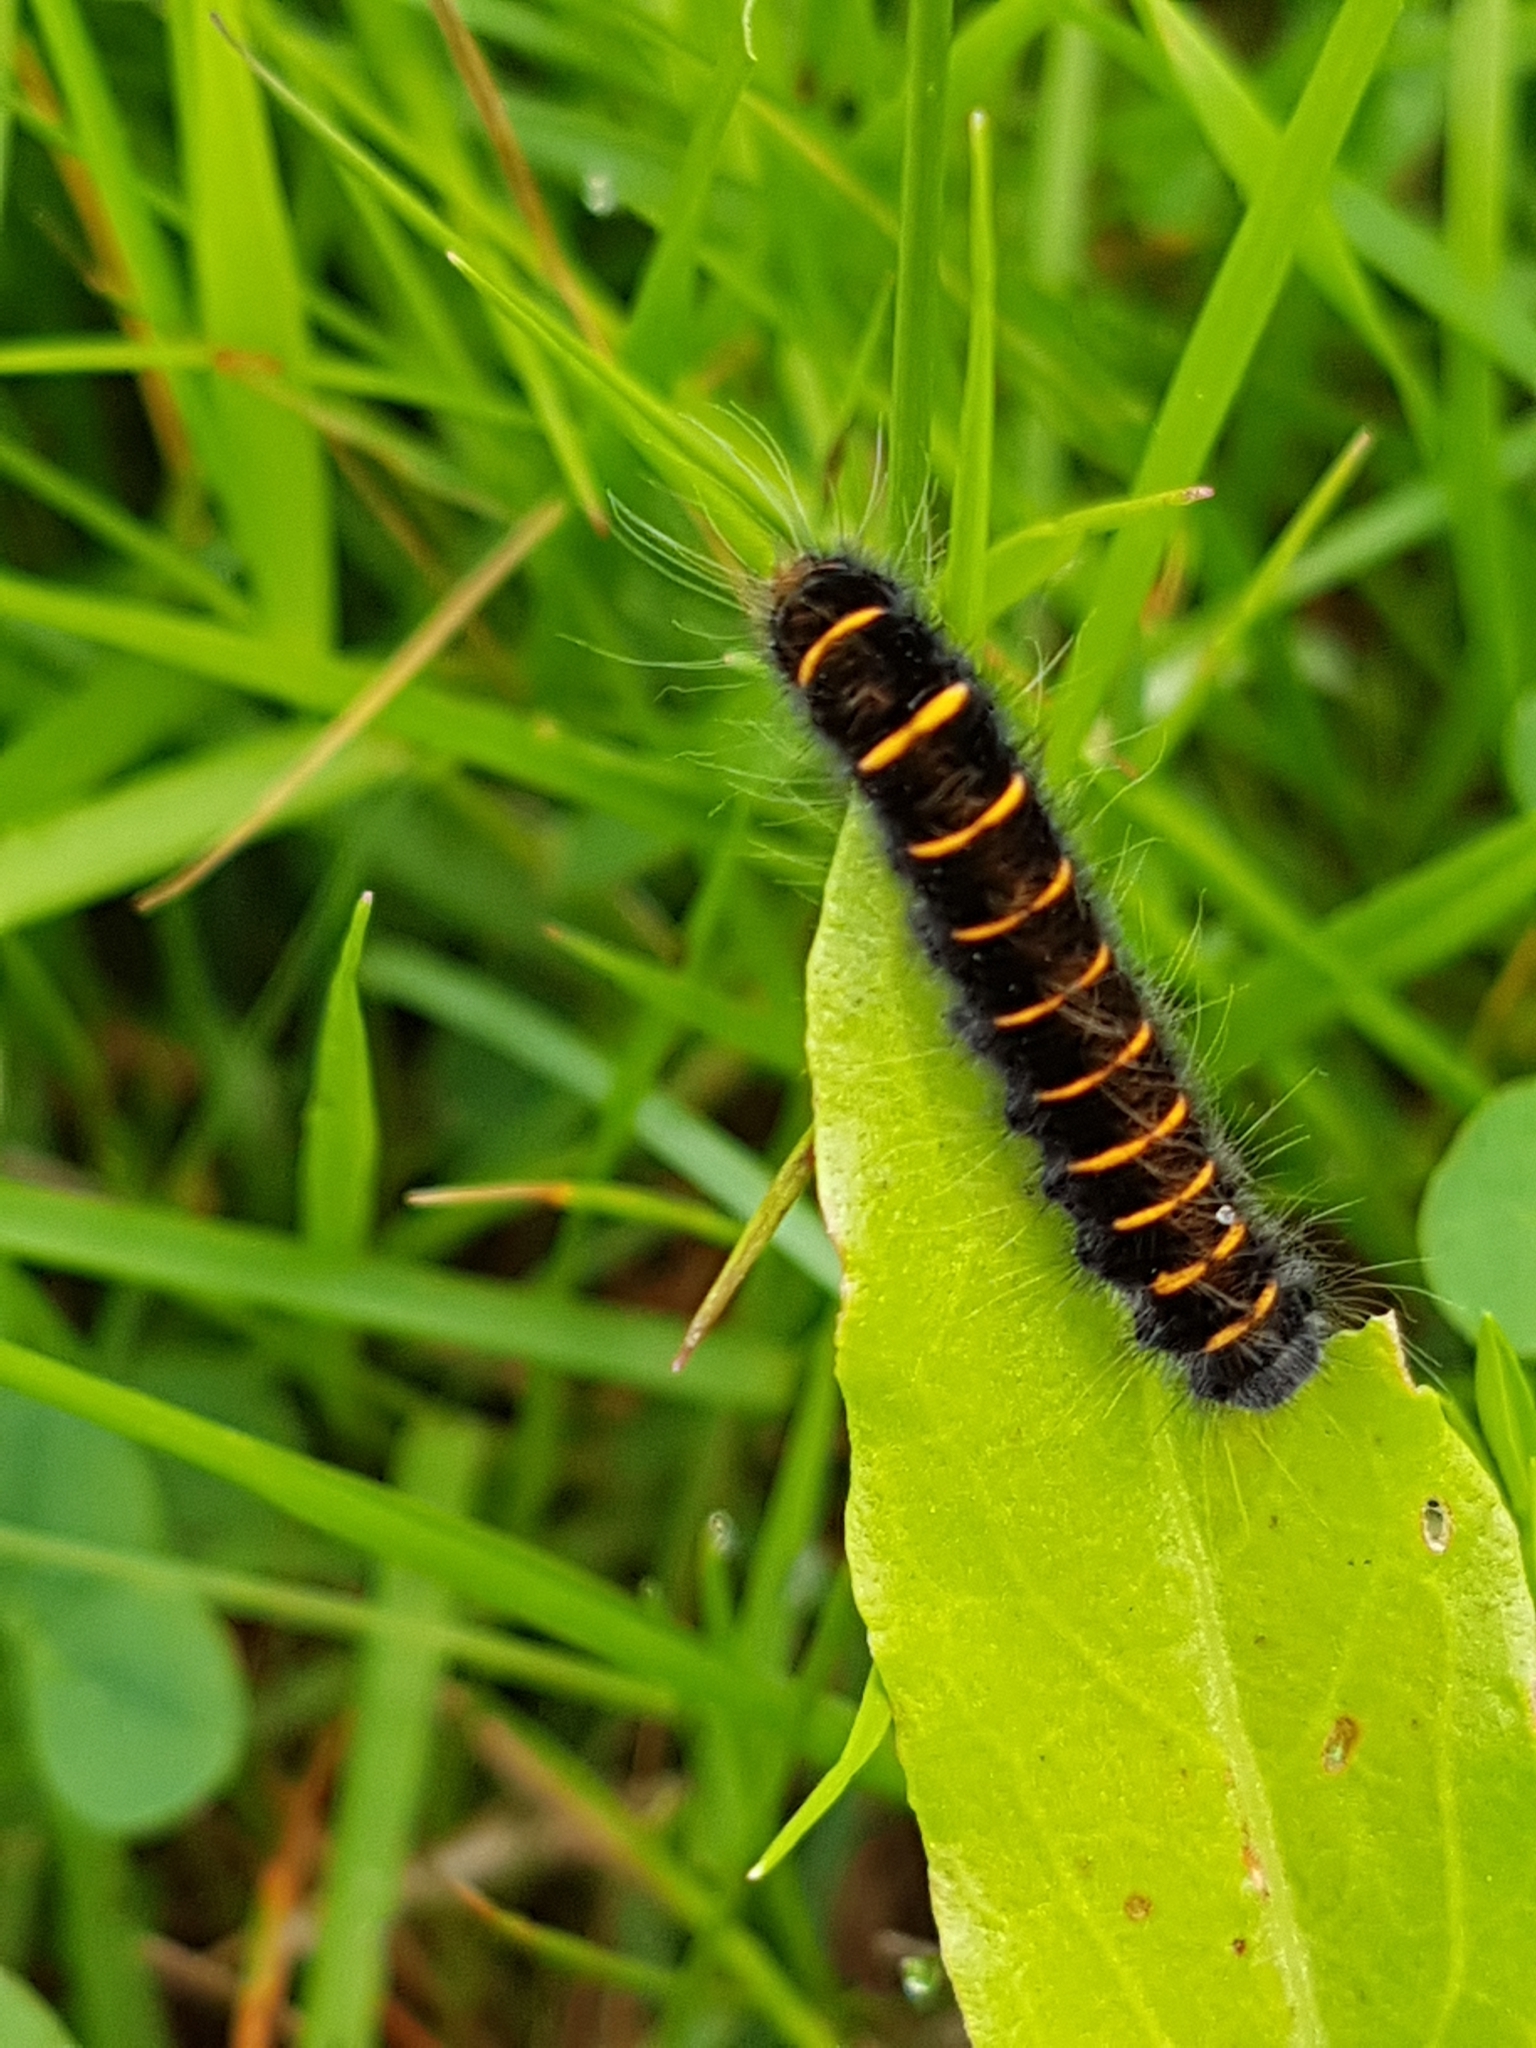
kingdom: Animalia
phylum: Arthropoda
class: Insecta
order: Lepidoptera
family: Lasiocampidae
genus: Macrothylacia
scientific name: Macrothylacia rubi
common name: Fox moth
